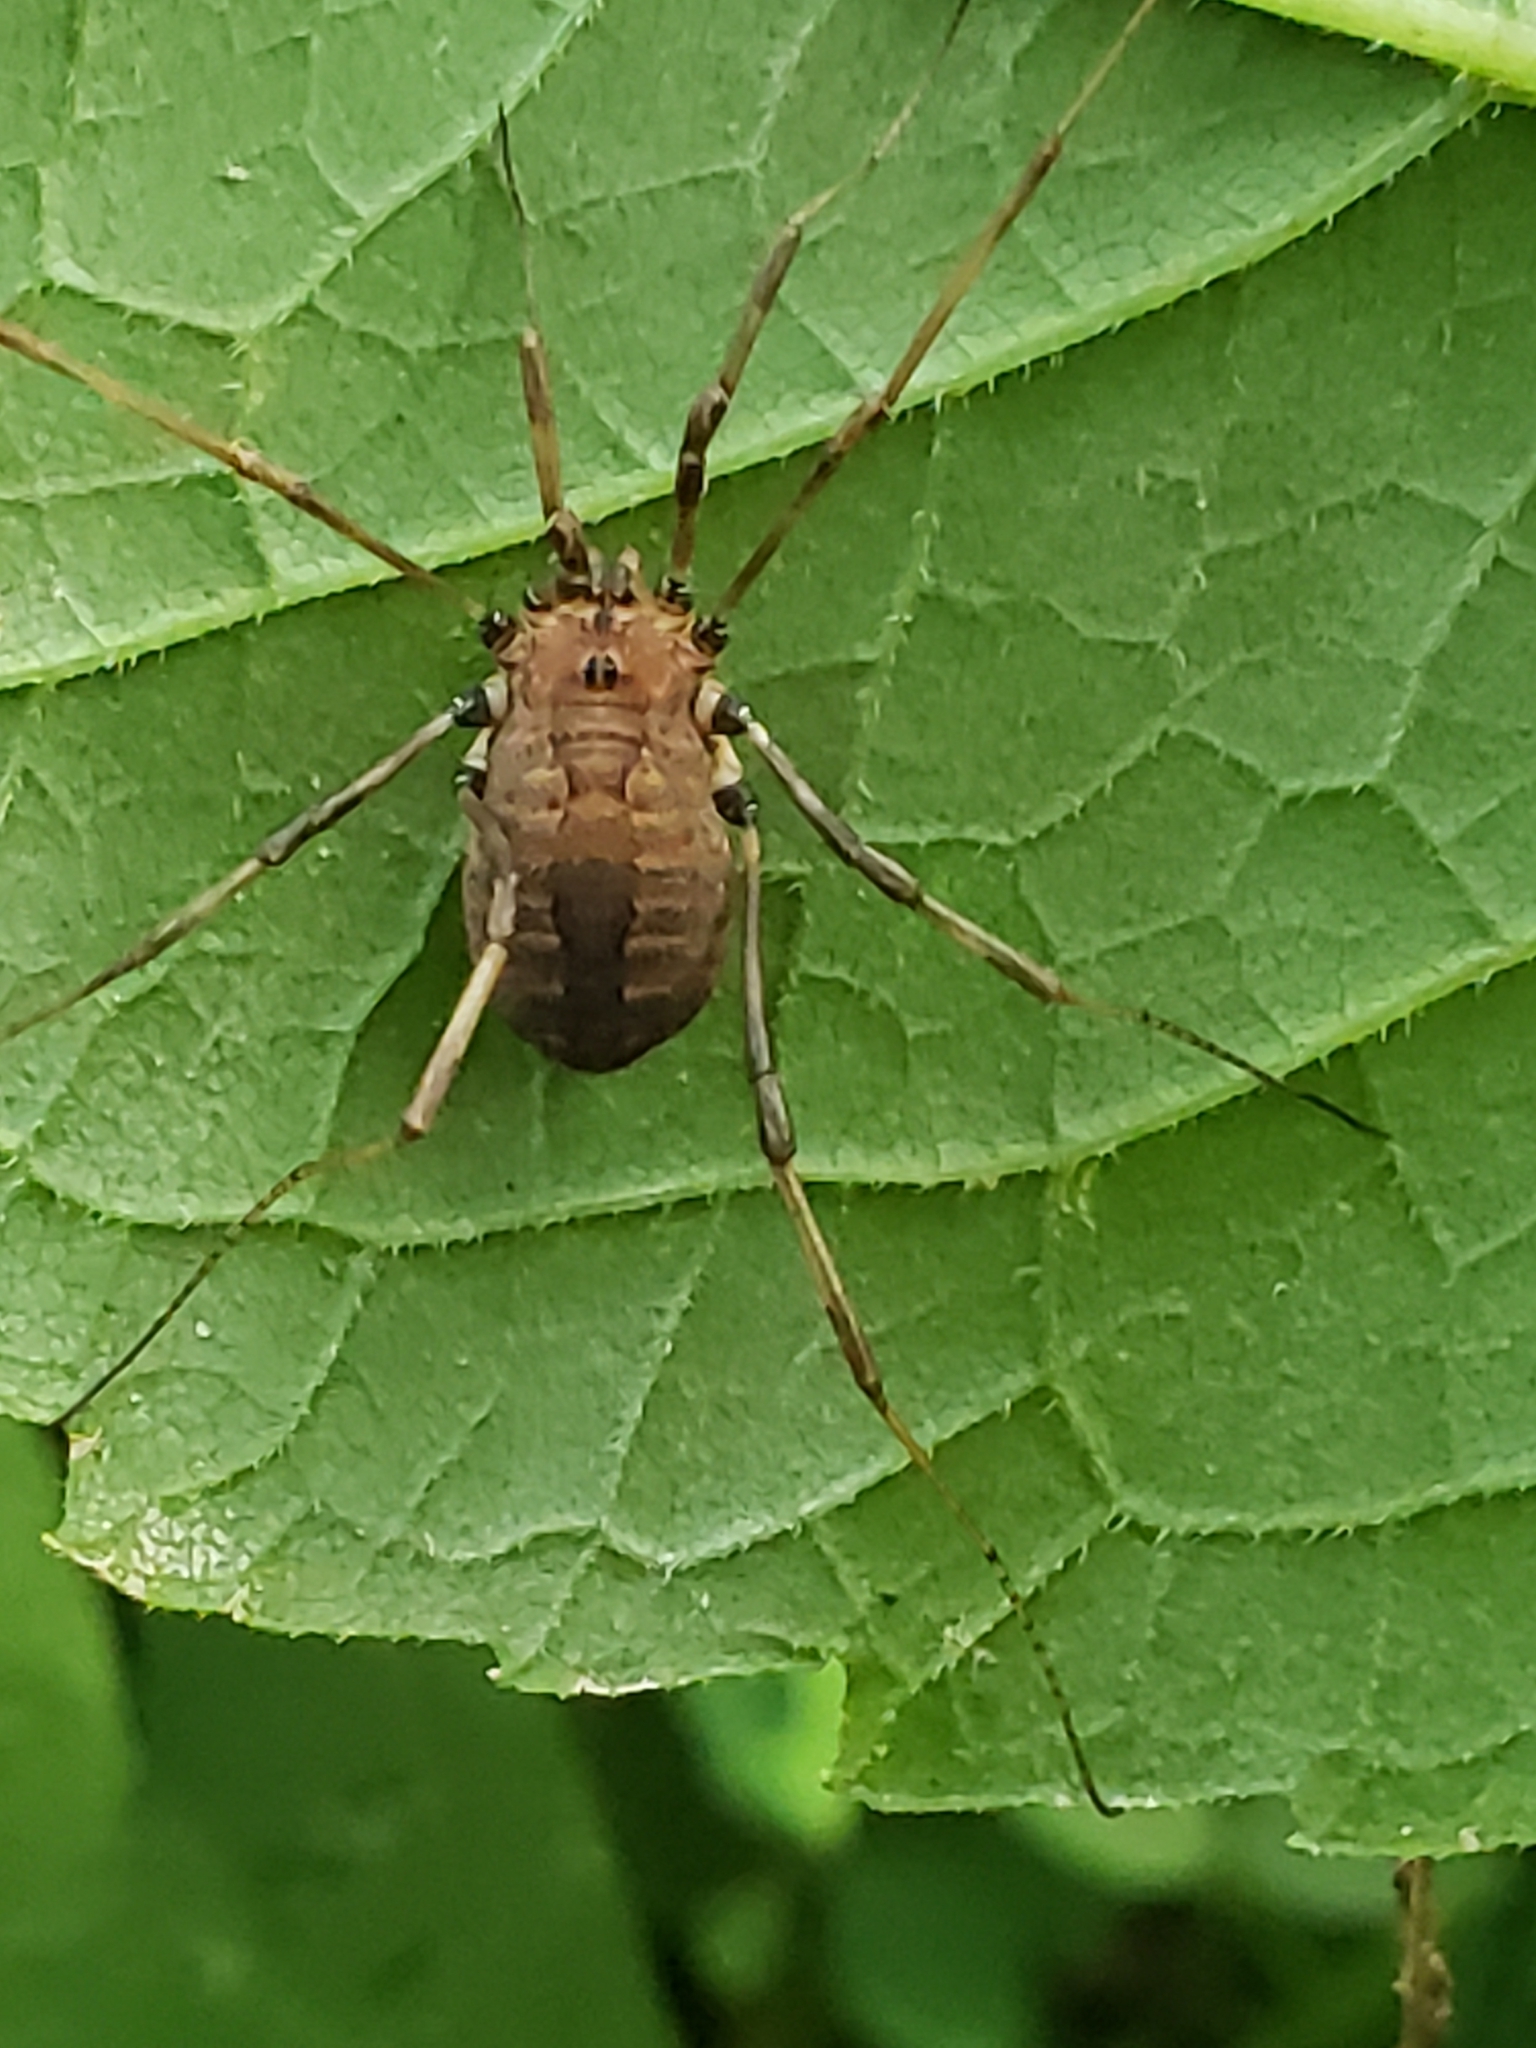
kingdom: Animalia
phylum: Arthropoda
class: Arachnida
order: Opiliones
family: Sclerosomatidae
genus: Hadrobunus
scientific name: Hadrobunus maculosus
